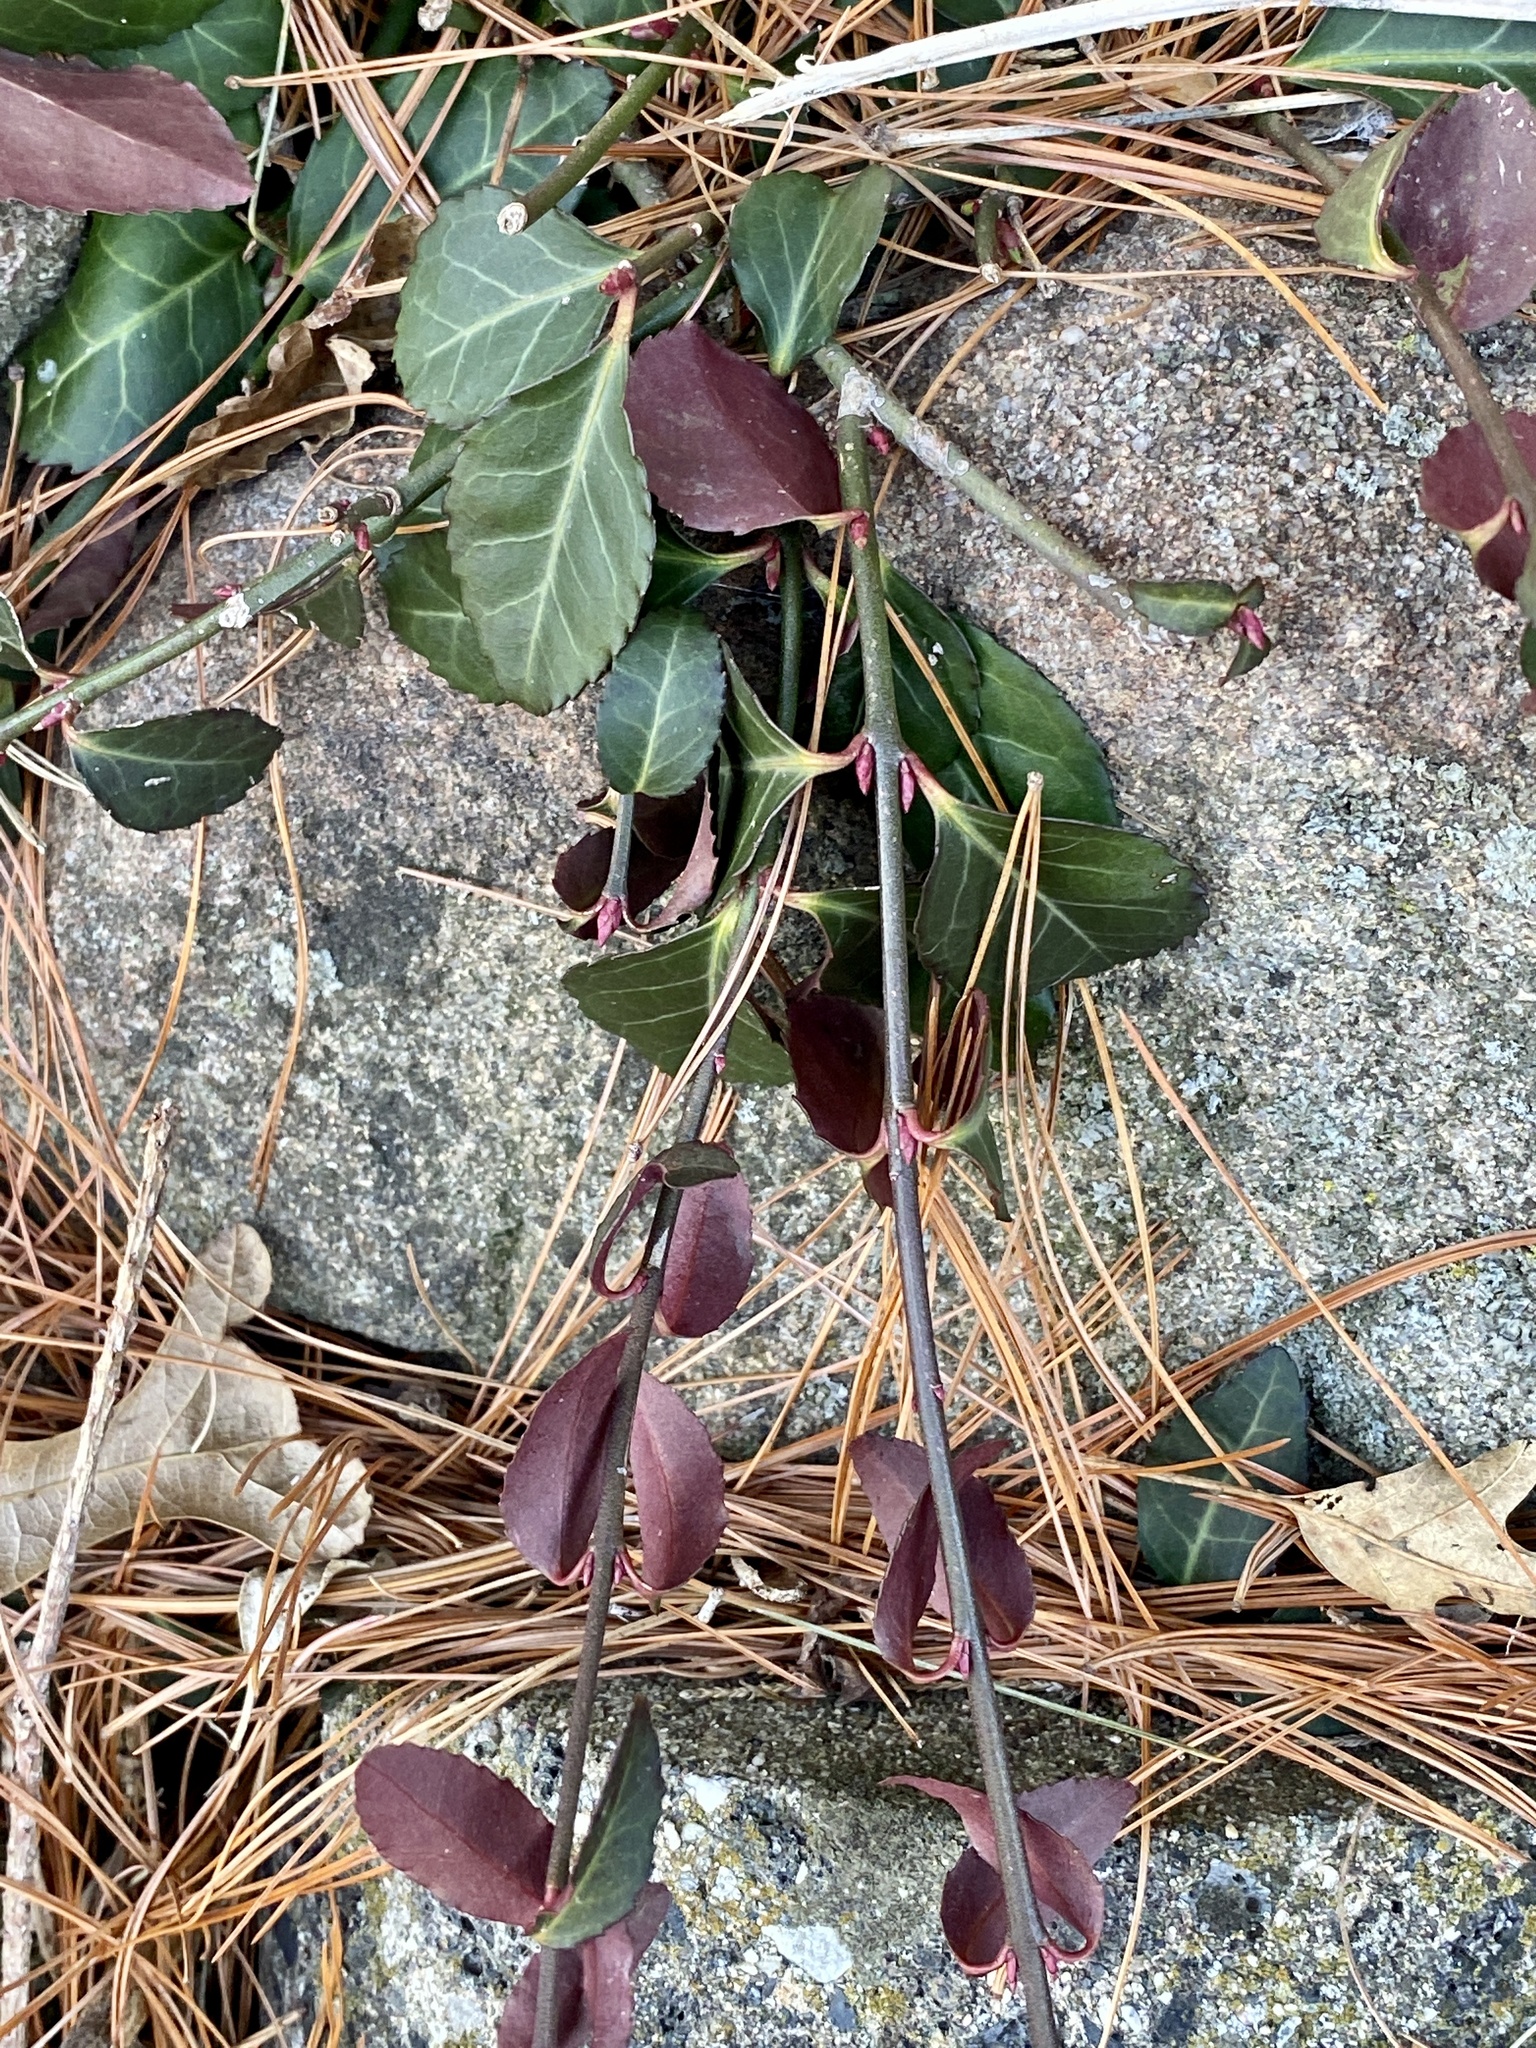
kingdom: Plantae
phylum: Tracheophyta
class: Magnoliopsida
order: Celastrales
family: Celastraceae
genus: Euonymus
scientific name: Euonymus fortunei
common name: Climbing euonymus
